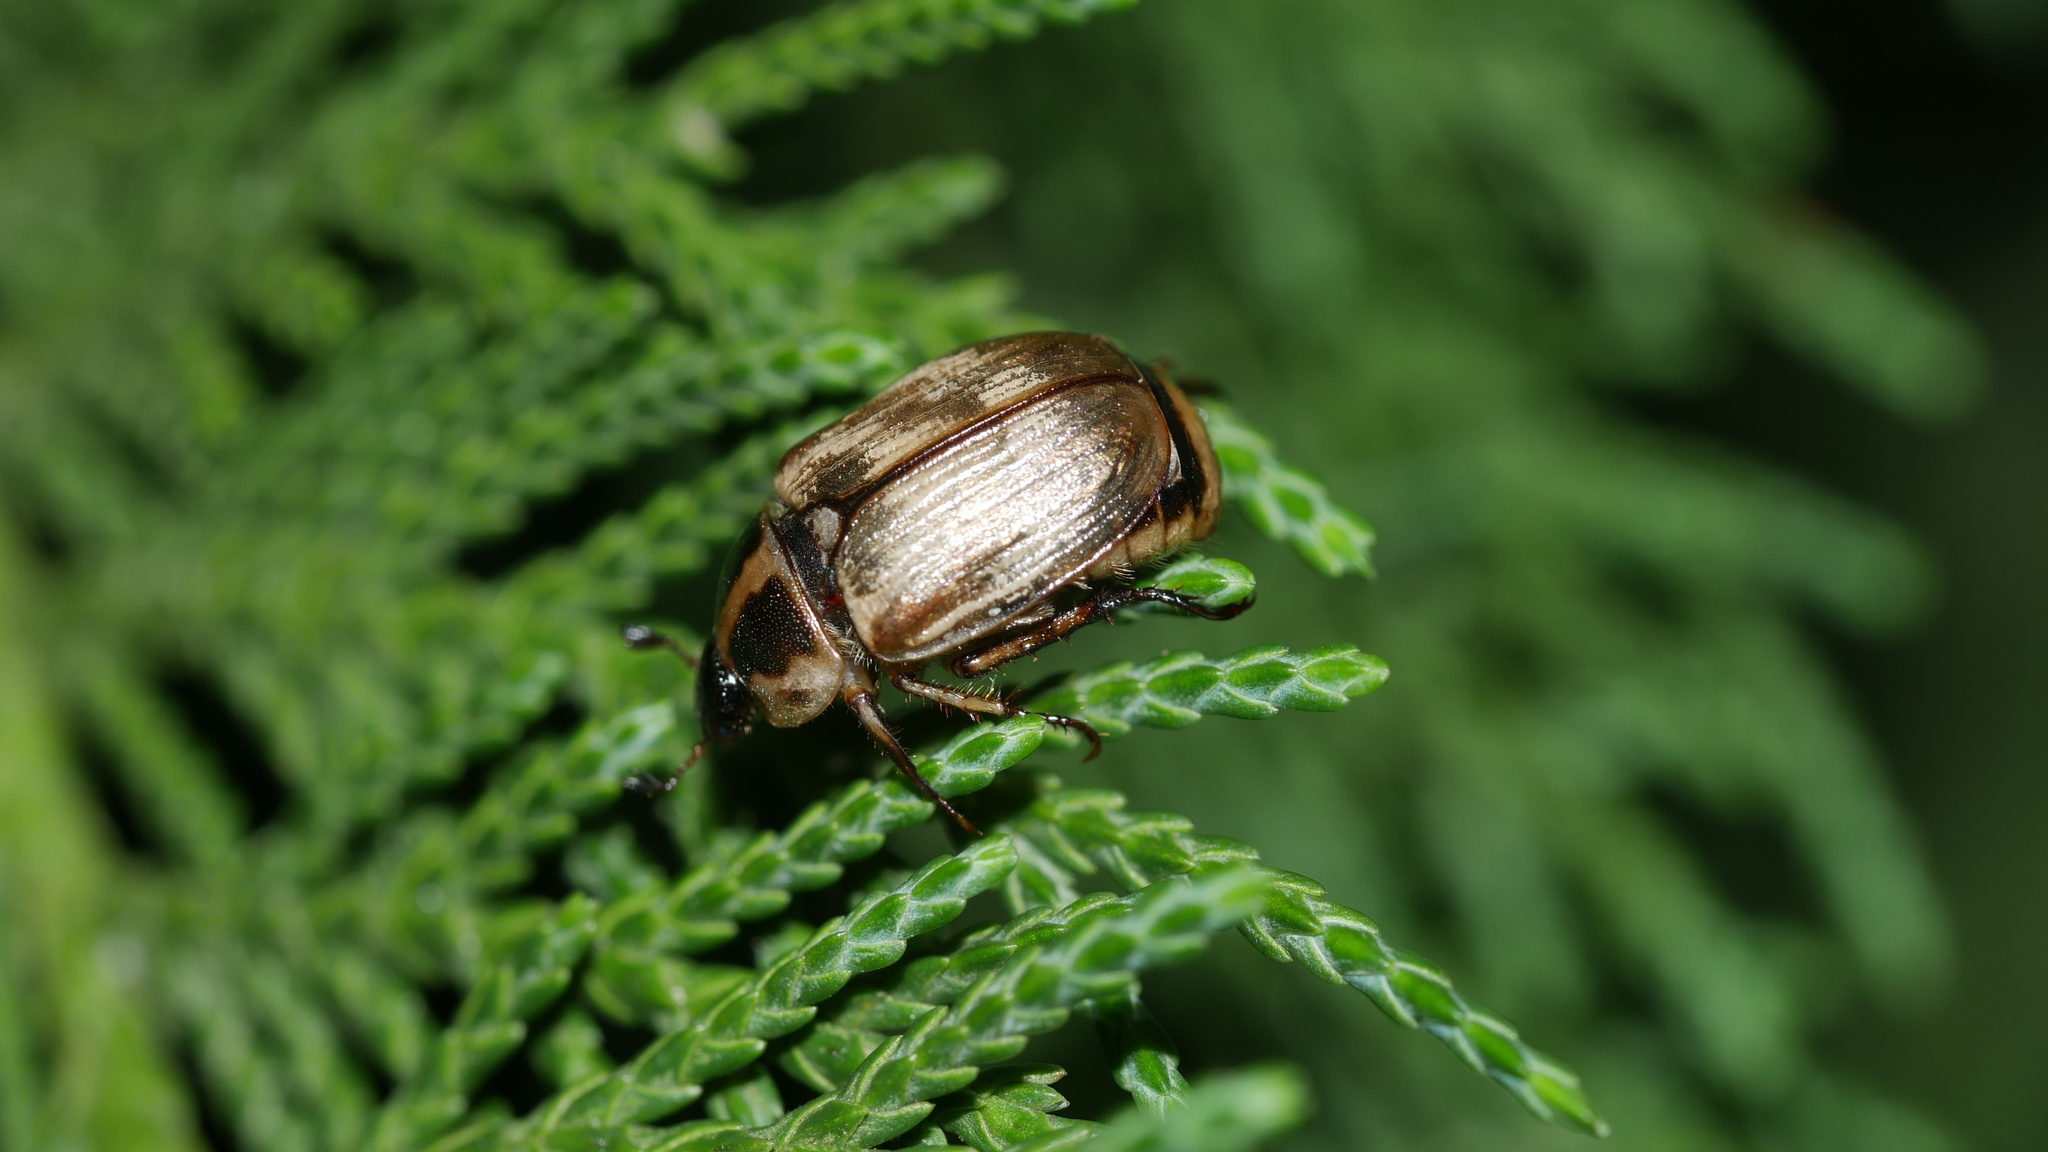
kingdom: Animalia
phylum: Arthropoda
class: Insecta
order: Coleoptera
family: Scarabaeidae
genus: Exomala
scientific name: Exomala orientalis
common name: Oriental beetle
